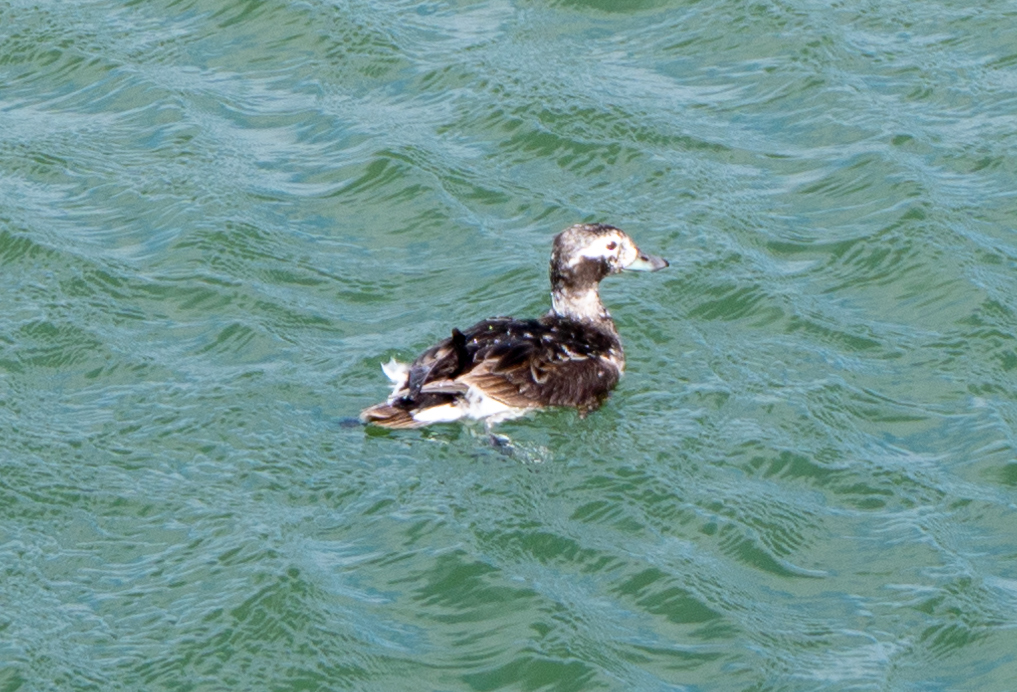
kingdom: Animalia
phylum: Chordata
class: Aves
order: Anseriformes
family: Anatidae
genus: Clangula
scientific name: Clangula hyemalis
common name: Long-tailed duck
